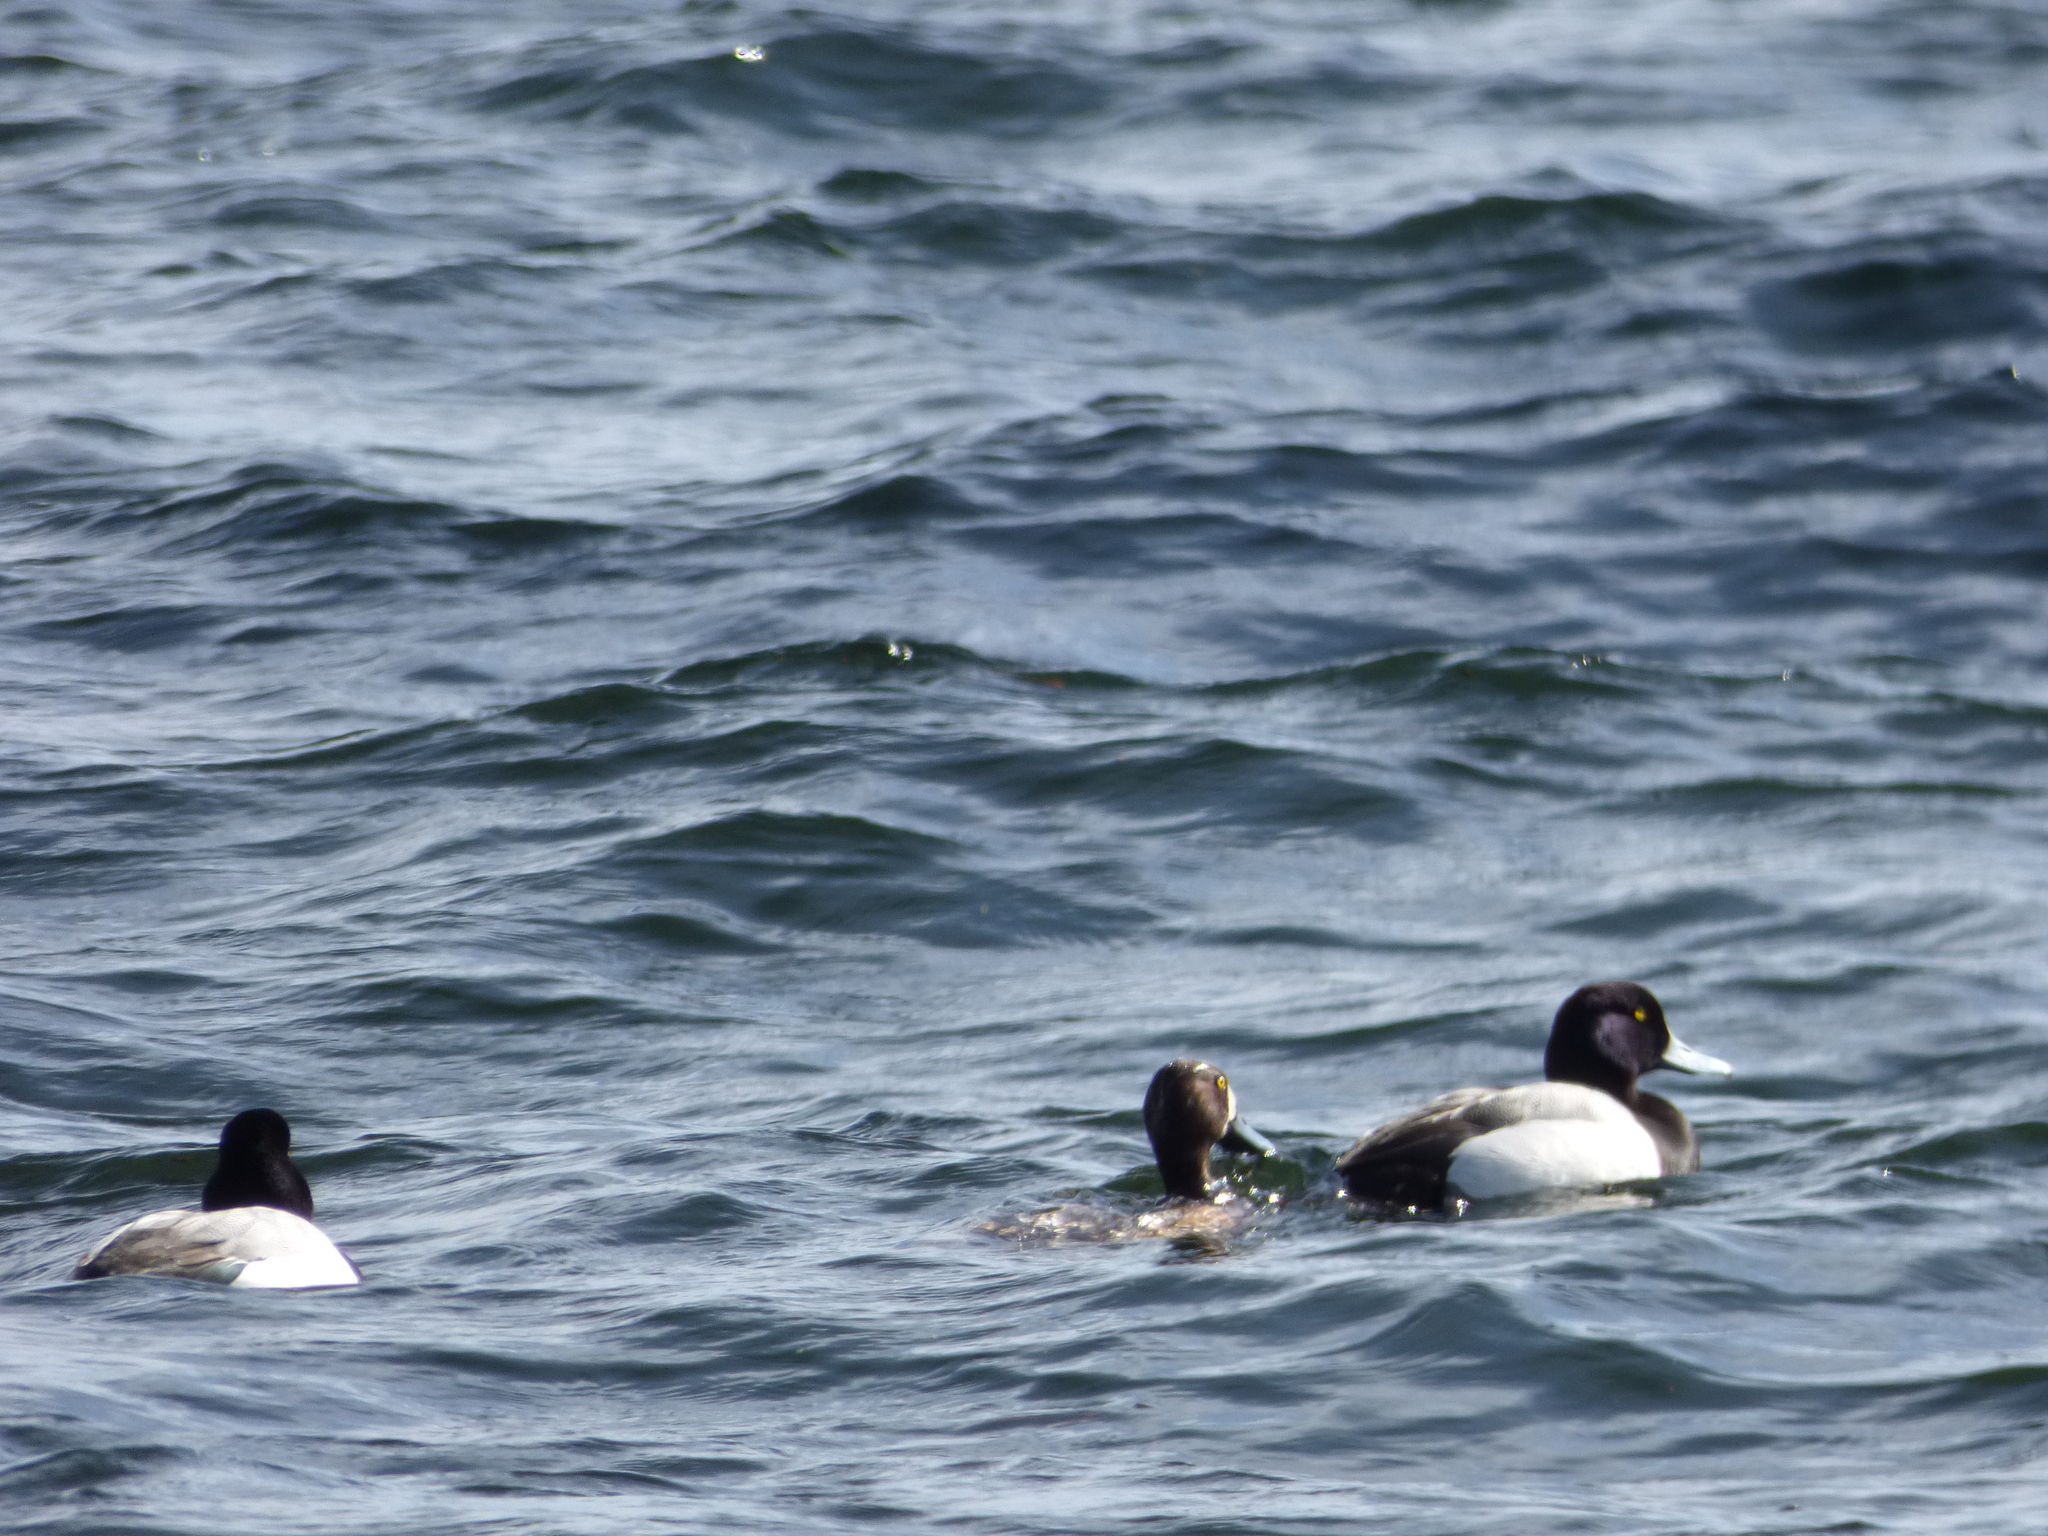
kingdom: Animalia
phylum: Chordata
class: Aves
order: Anseriformes
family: Anatidae
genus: Aythya
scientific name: Aythya marila
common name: Greater scaup
